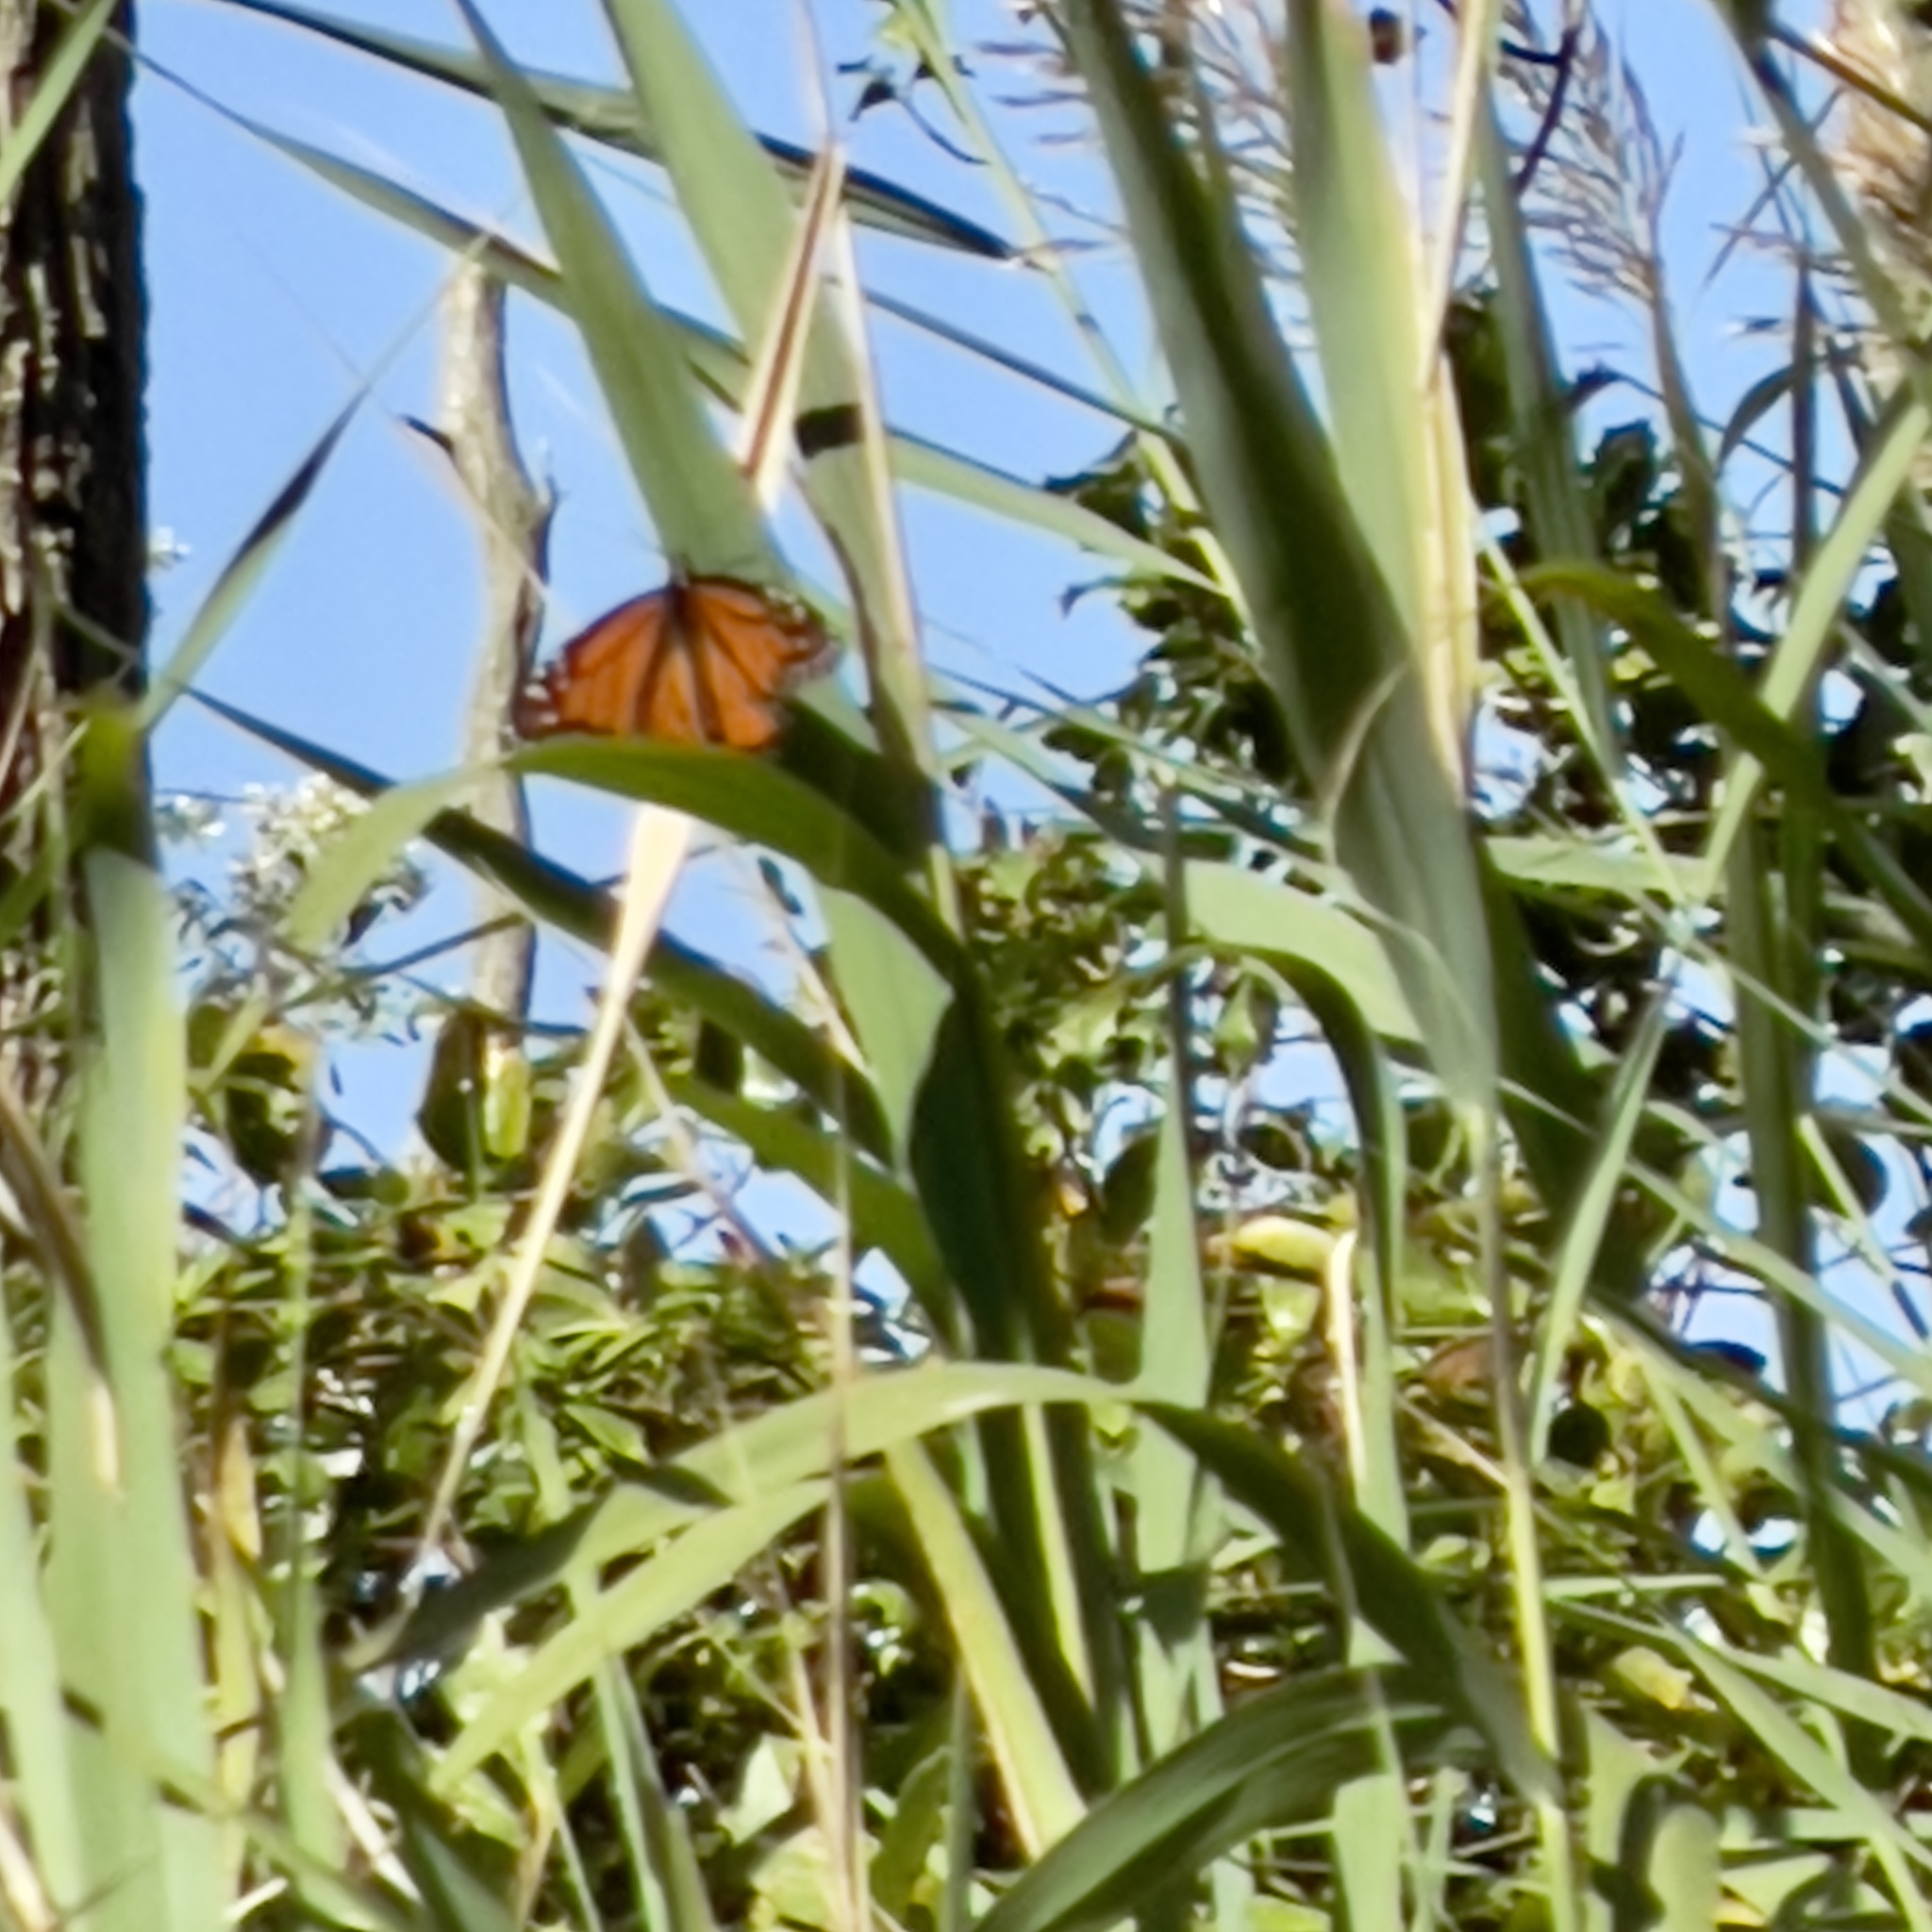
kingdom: Animalia
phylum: Arthropoda
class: Insecta
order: Lepidoptera
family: Nymphalidae
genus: Danaus
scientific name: Danaus plexippus
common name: Monarch
